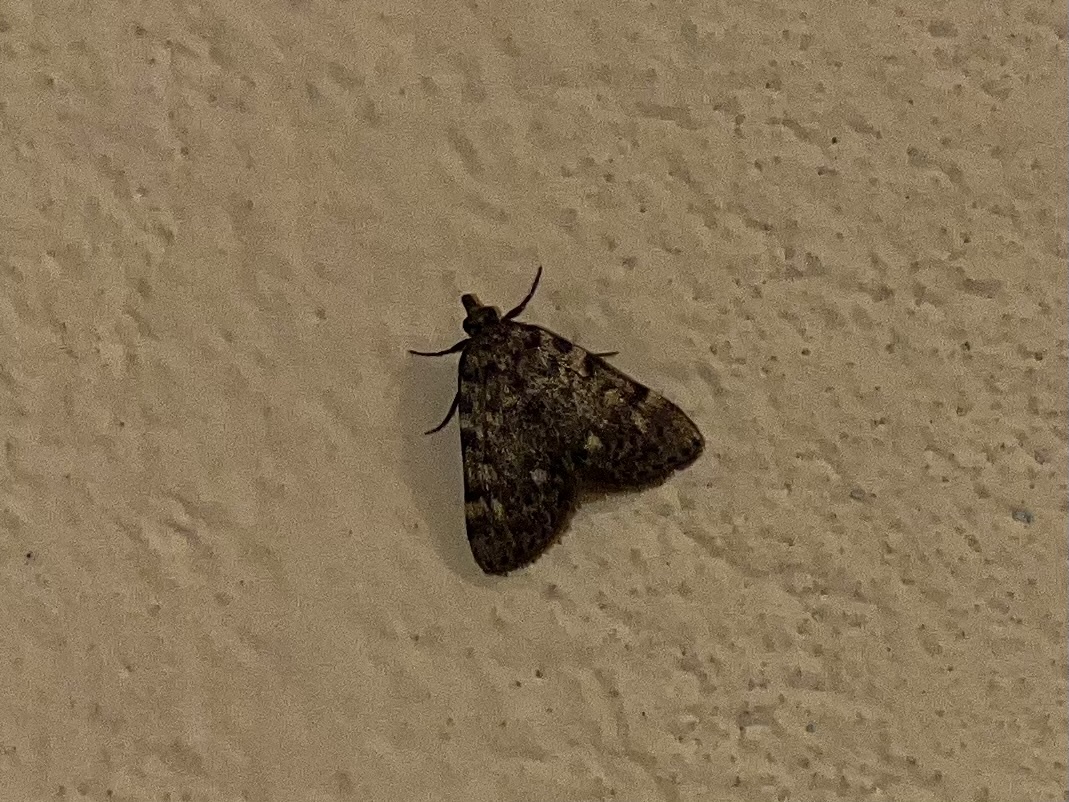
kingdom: Animalia
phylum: Arthropoda
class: Insecta
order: Lepidoptera
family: Pyralidae
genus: Aglossa
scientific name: Aglossa pinguinalis
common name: Large tabby
